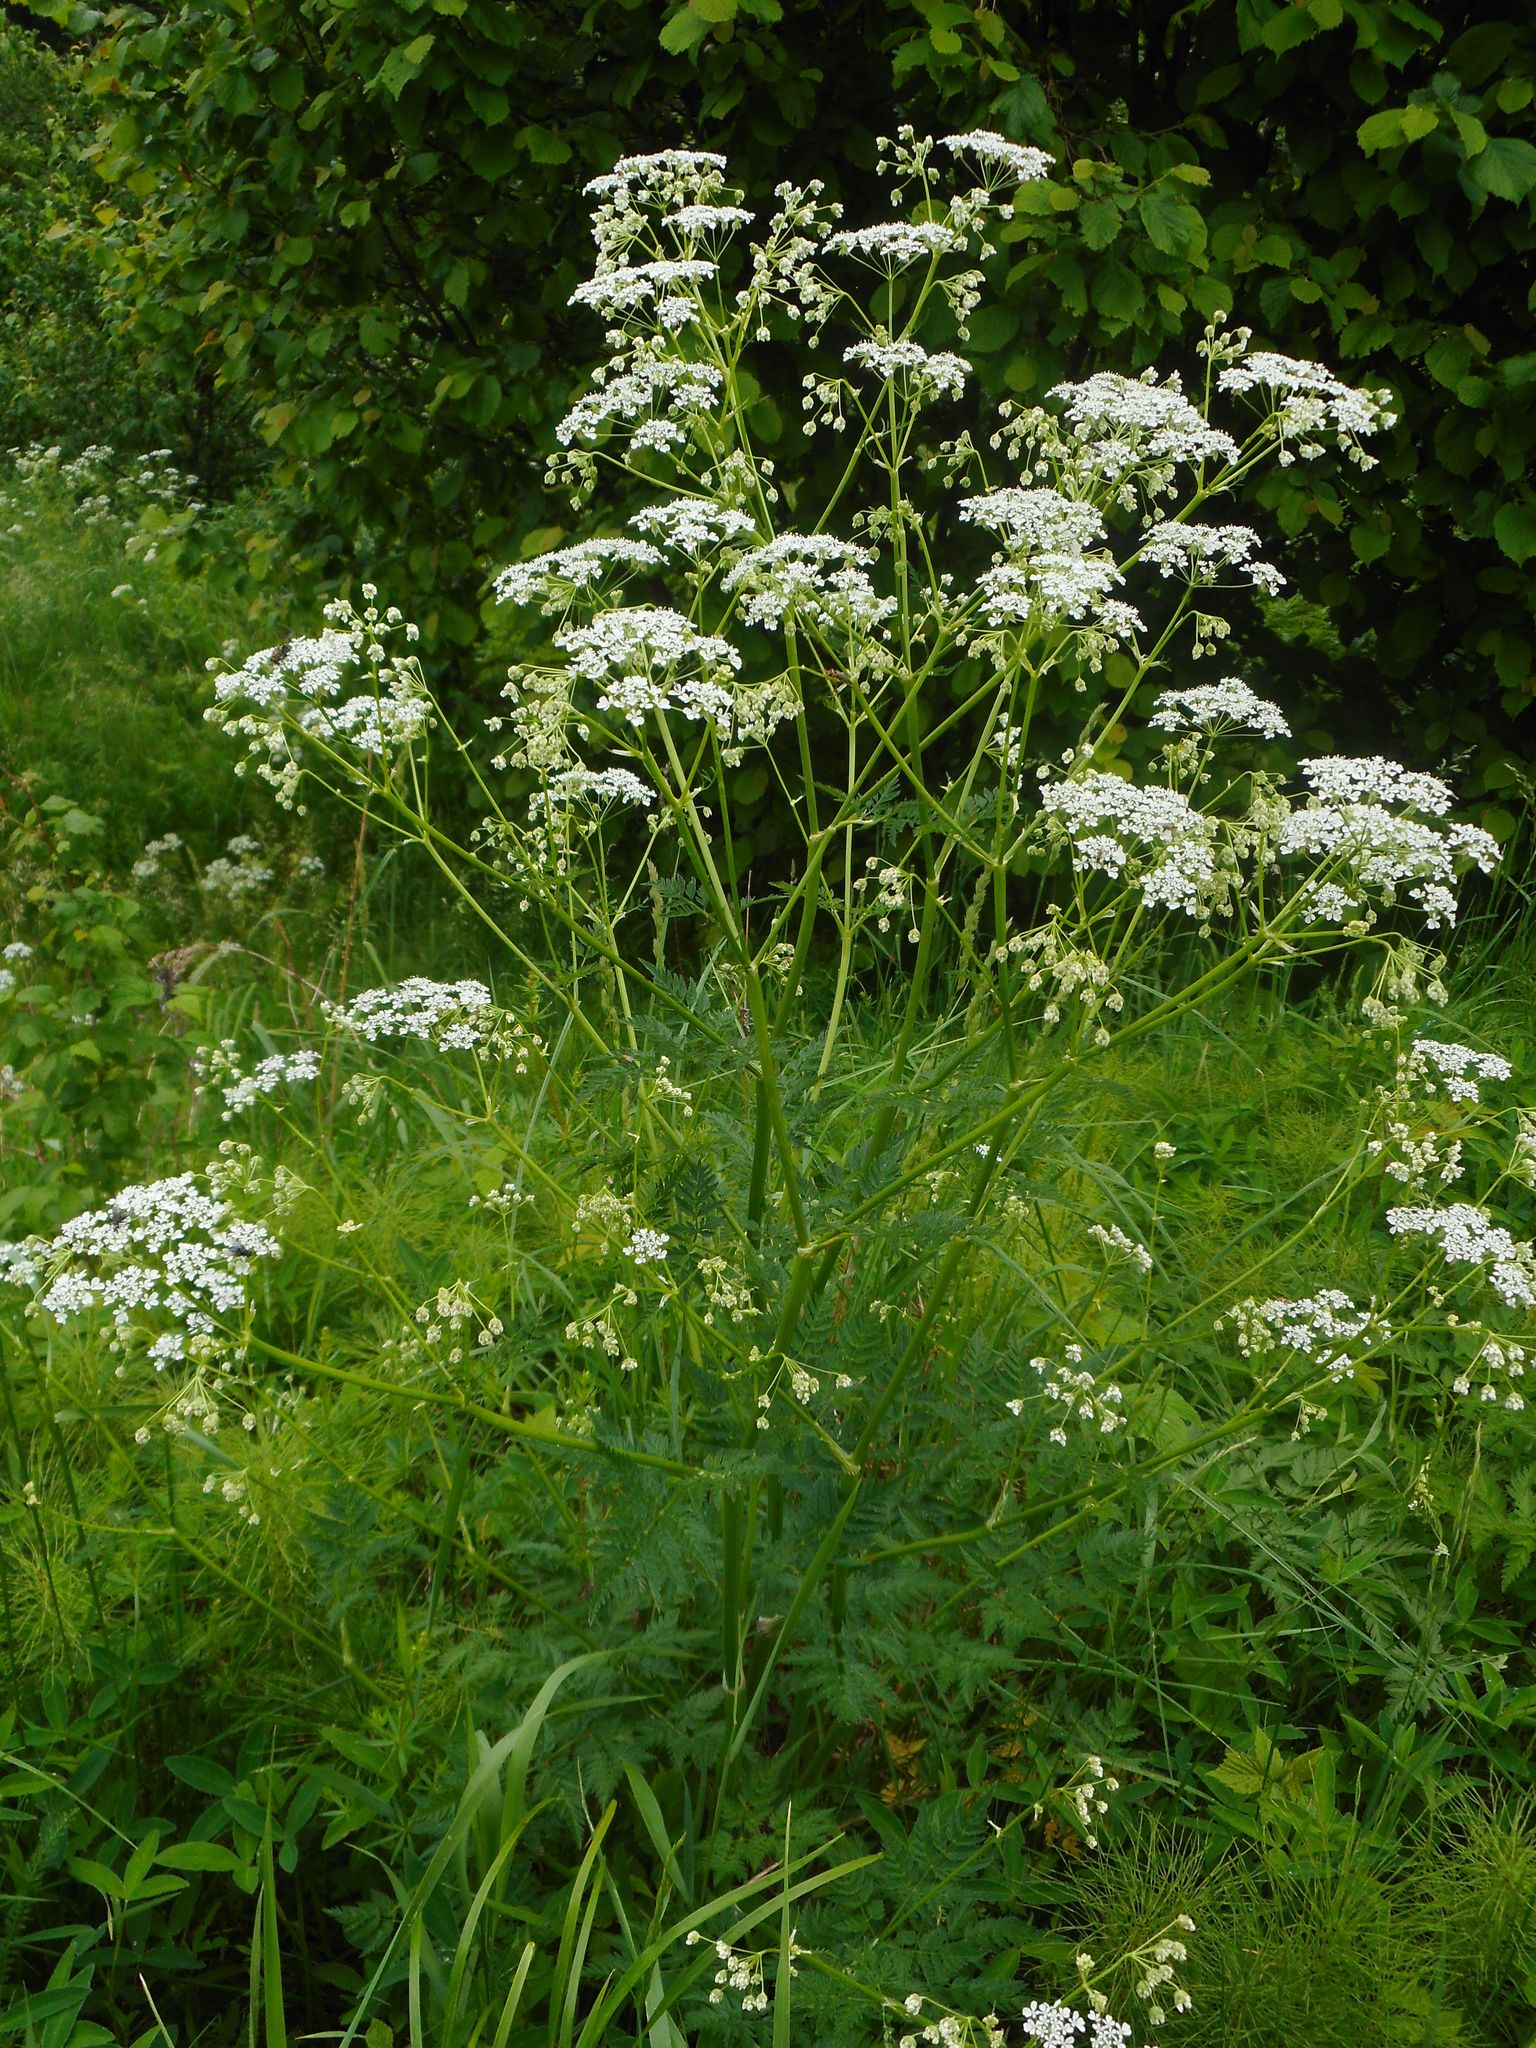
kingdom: Plantae
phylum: Tracheophyta
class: Magnoliopsida
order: Apiales
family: Apiaceae
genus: Anthriscus
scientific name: Anthriscus sylvestris
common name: Cow parsley
